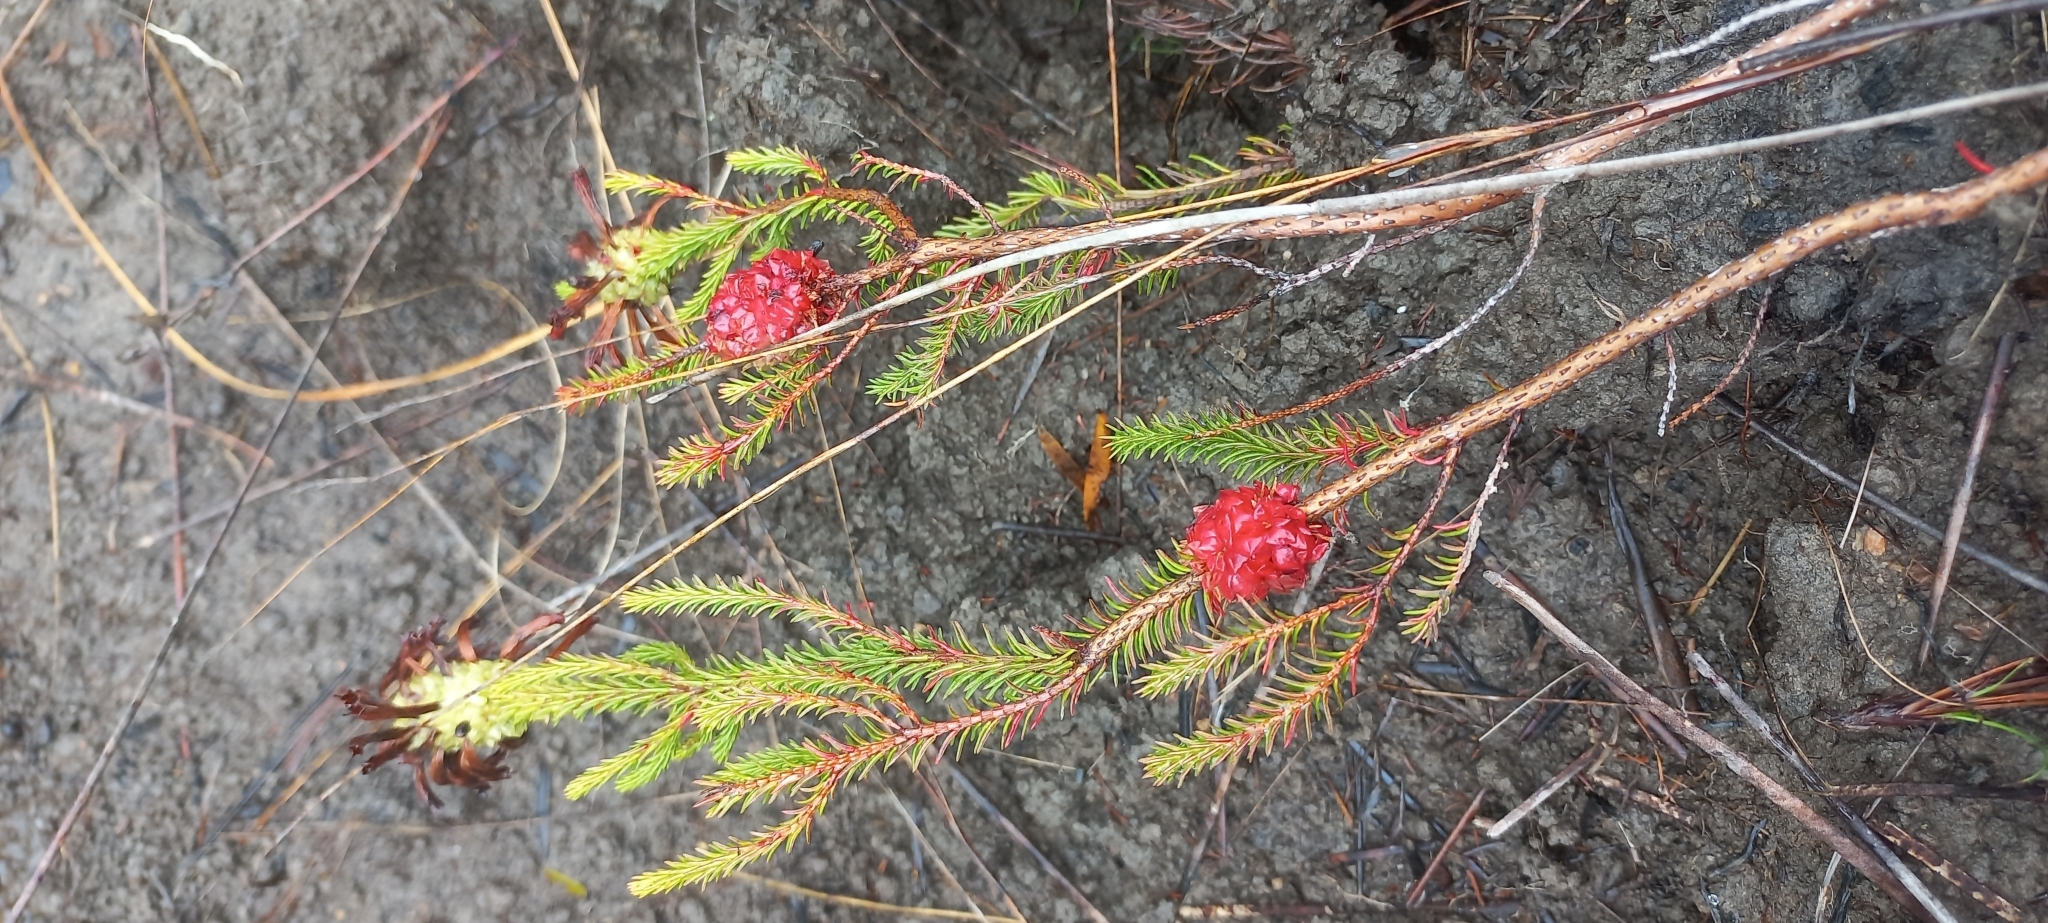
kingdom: Plantae
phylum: Tracheophyta
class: Magnoliopsida
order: Ericales
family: Ericaceae
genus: Erica
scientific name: Erica sessiliflora
